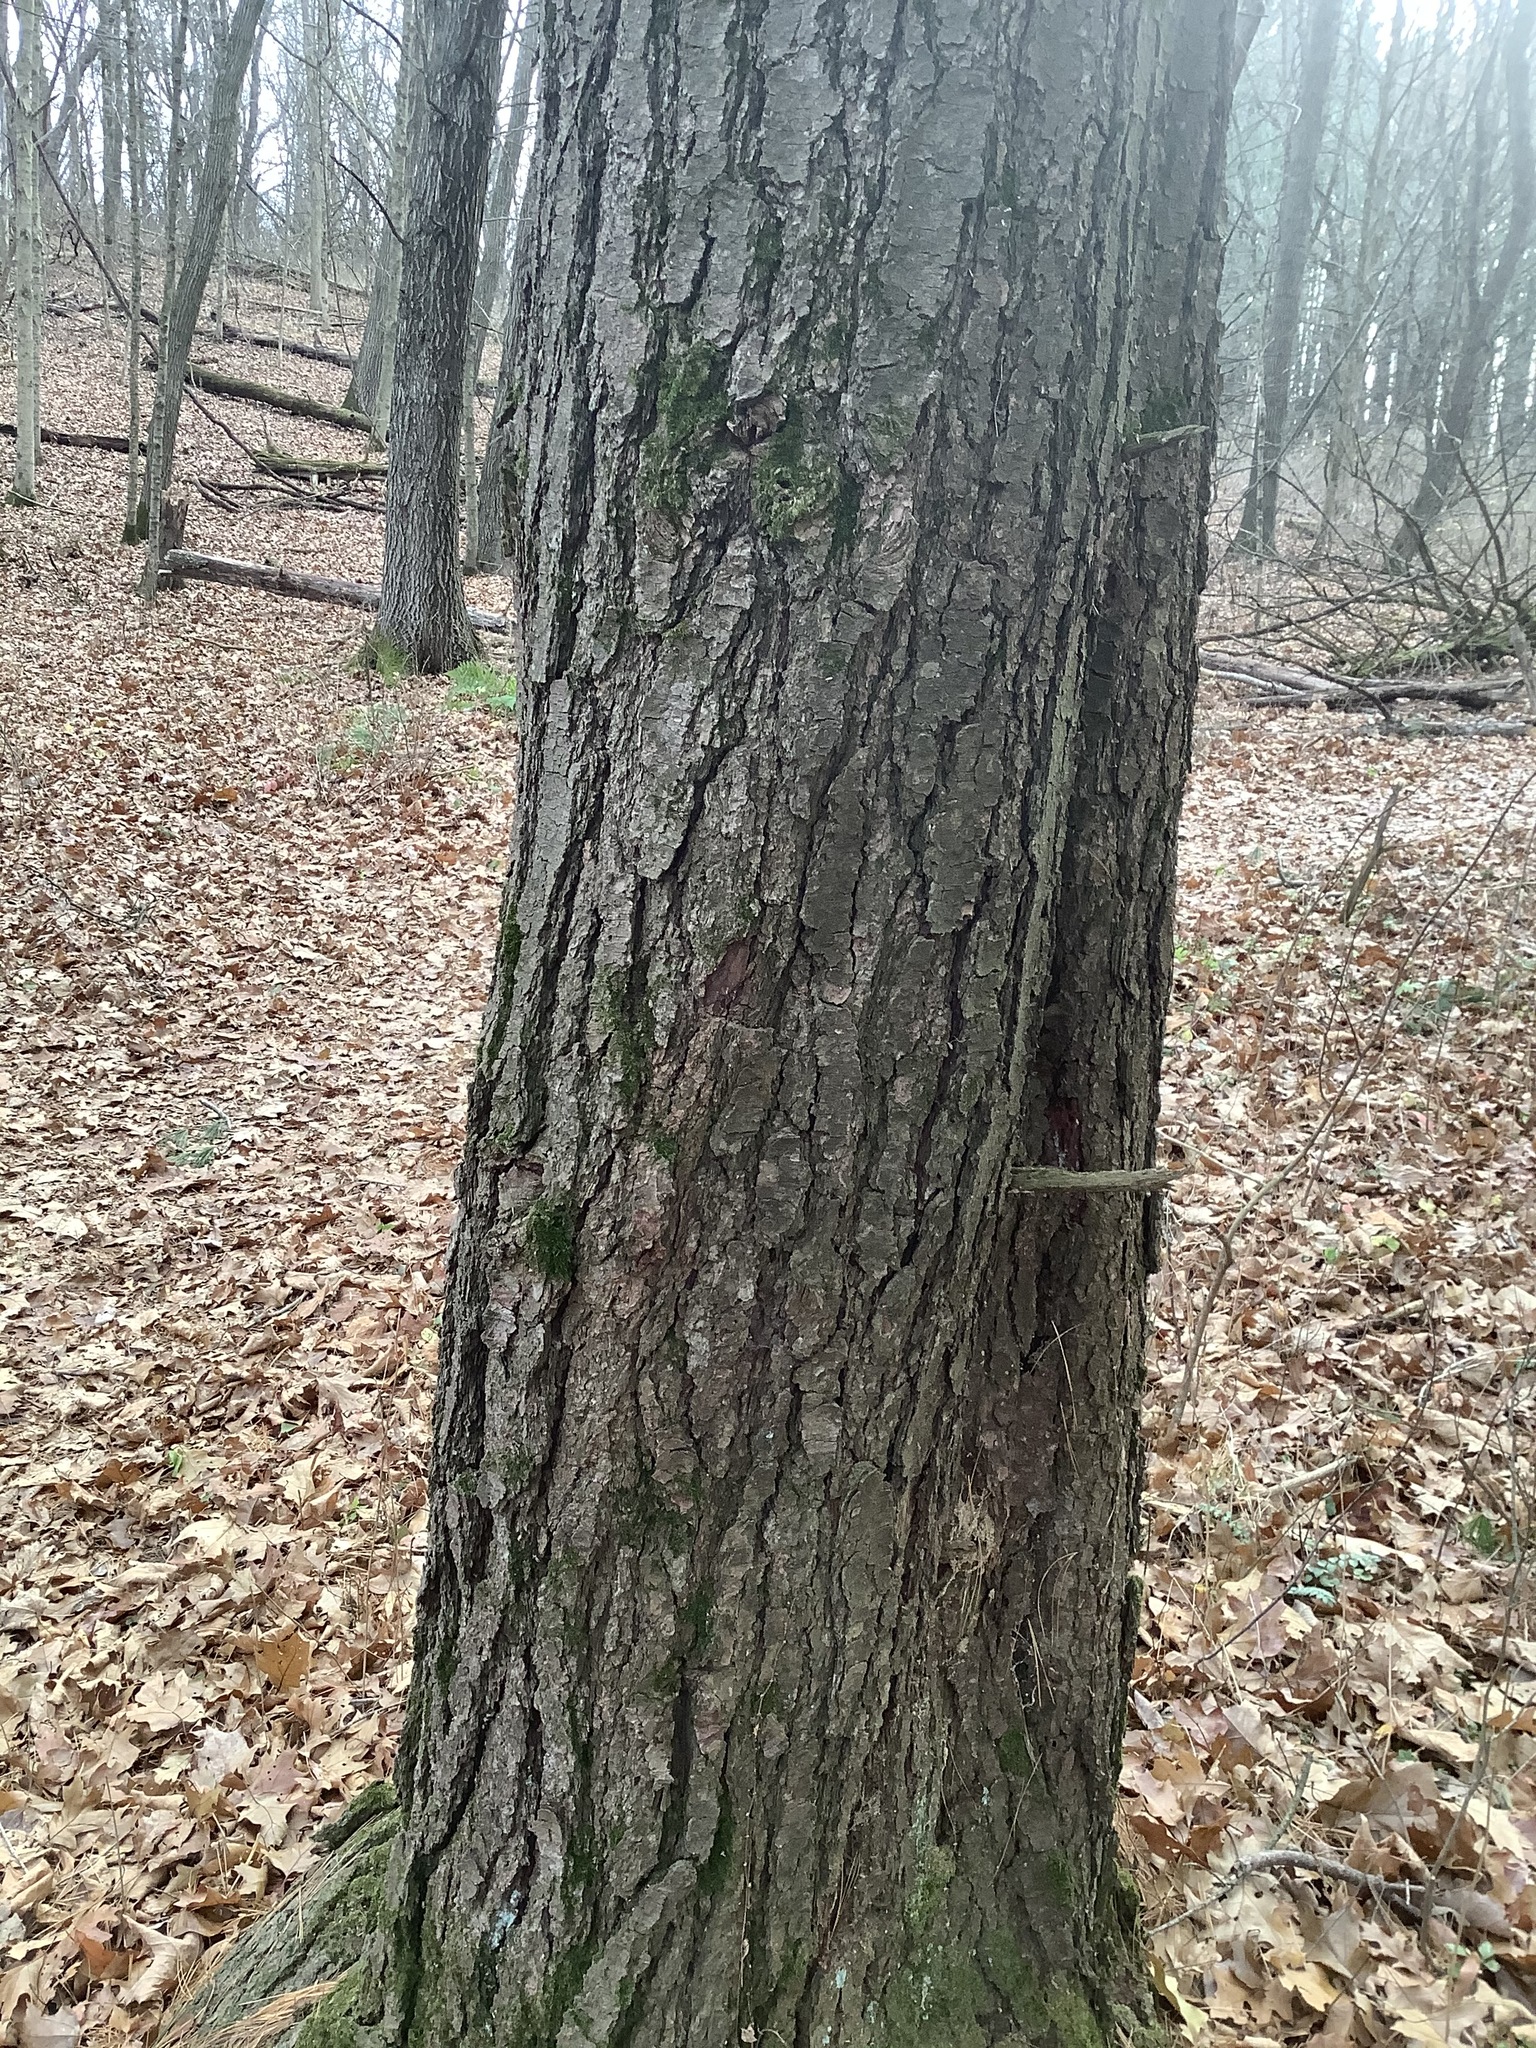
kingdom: Plantae
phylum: Tracheophyta
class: Pinopsida
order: Pinales
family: Pinaceae
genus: Pinus
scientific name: Pinus strobus
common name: Weymouth pine
